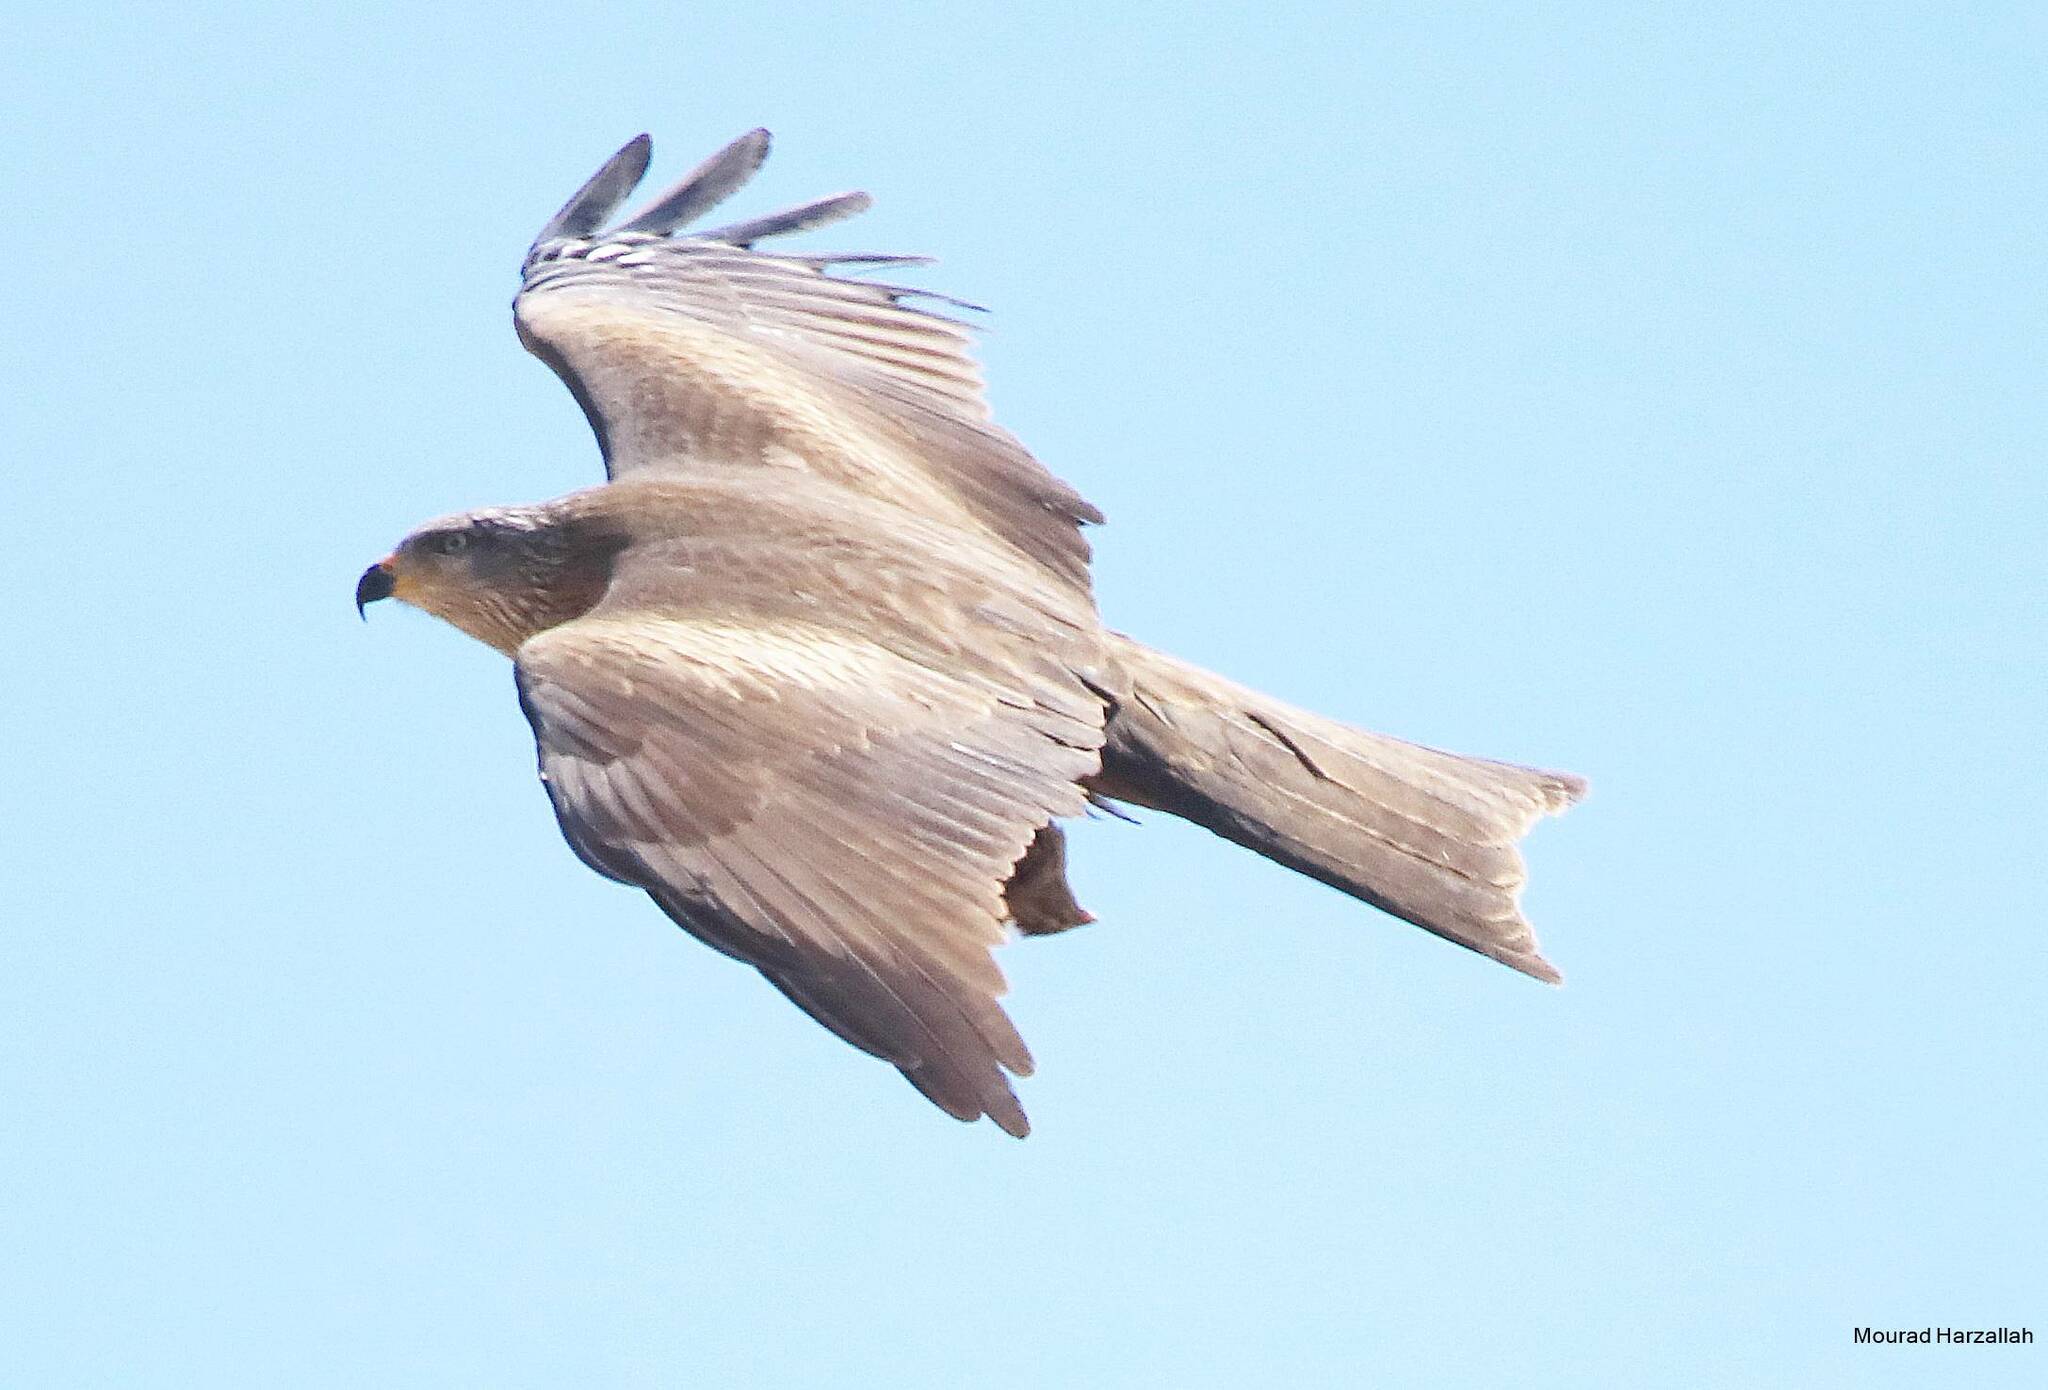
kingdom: Animalia
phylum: Chordata
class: Aves
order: Accipitriformes
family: Accipitridae
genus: Milvus
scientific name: Milvus migrans
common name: Black kite
